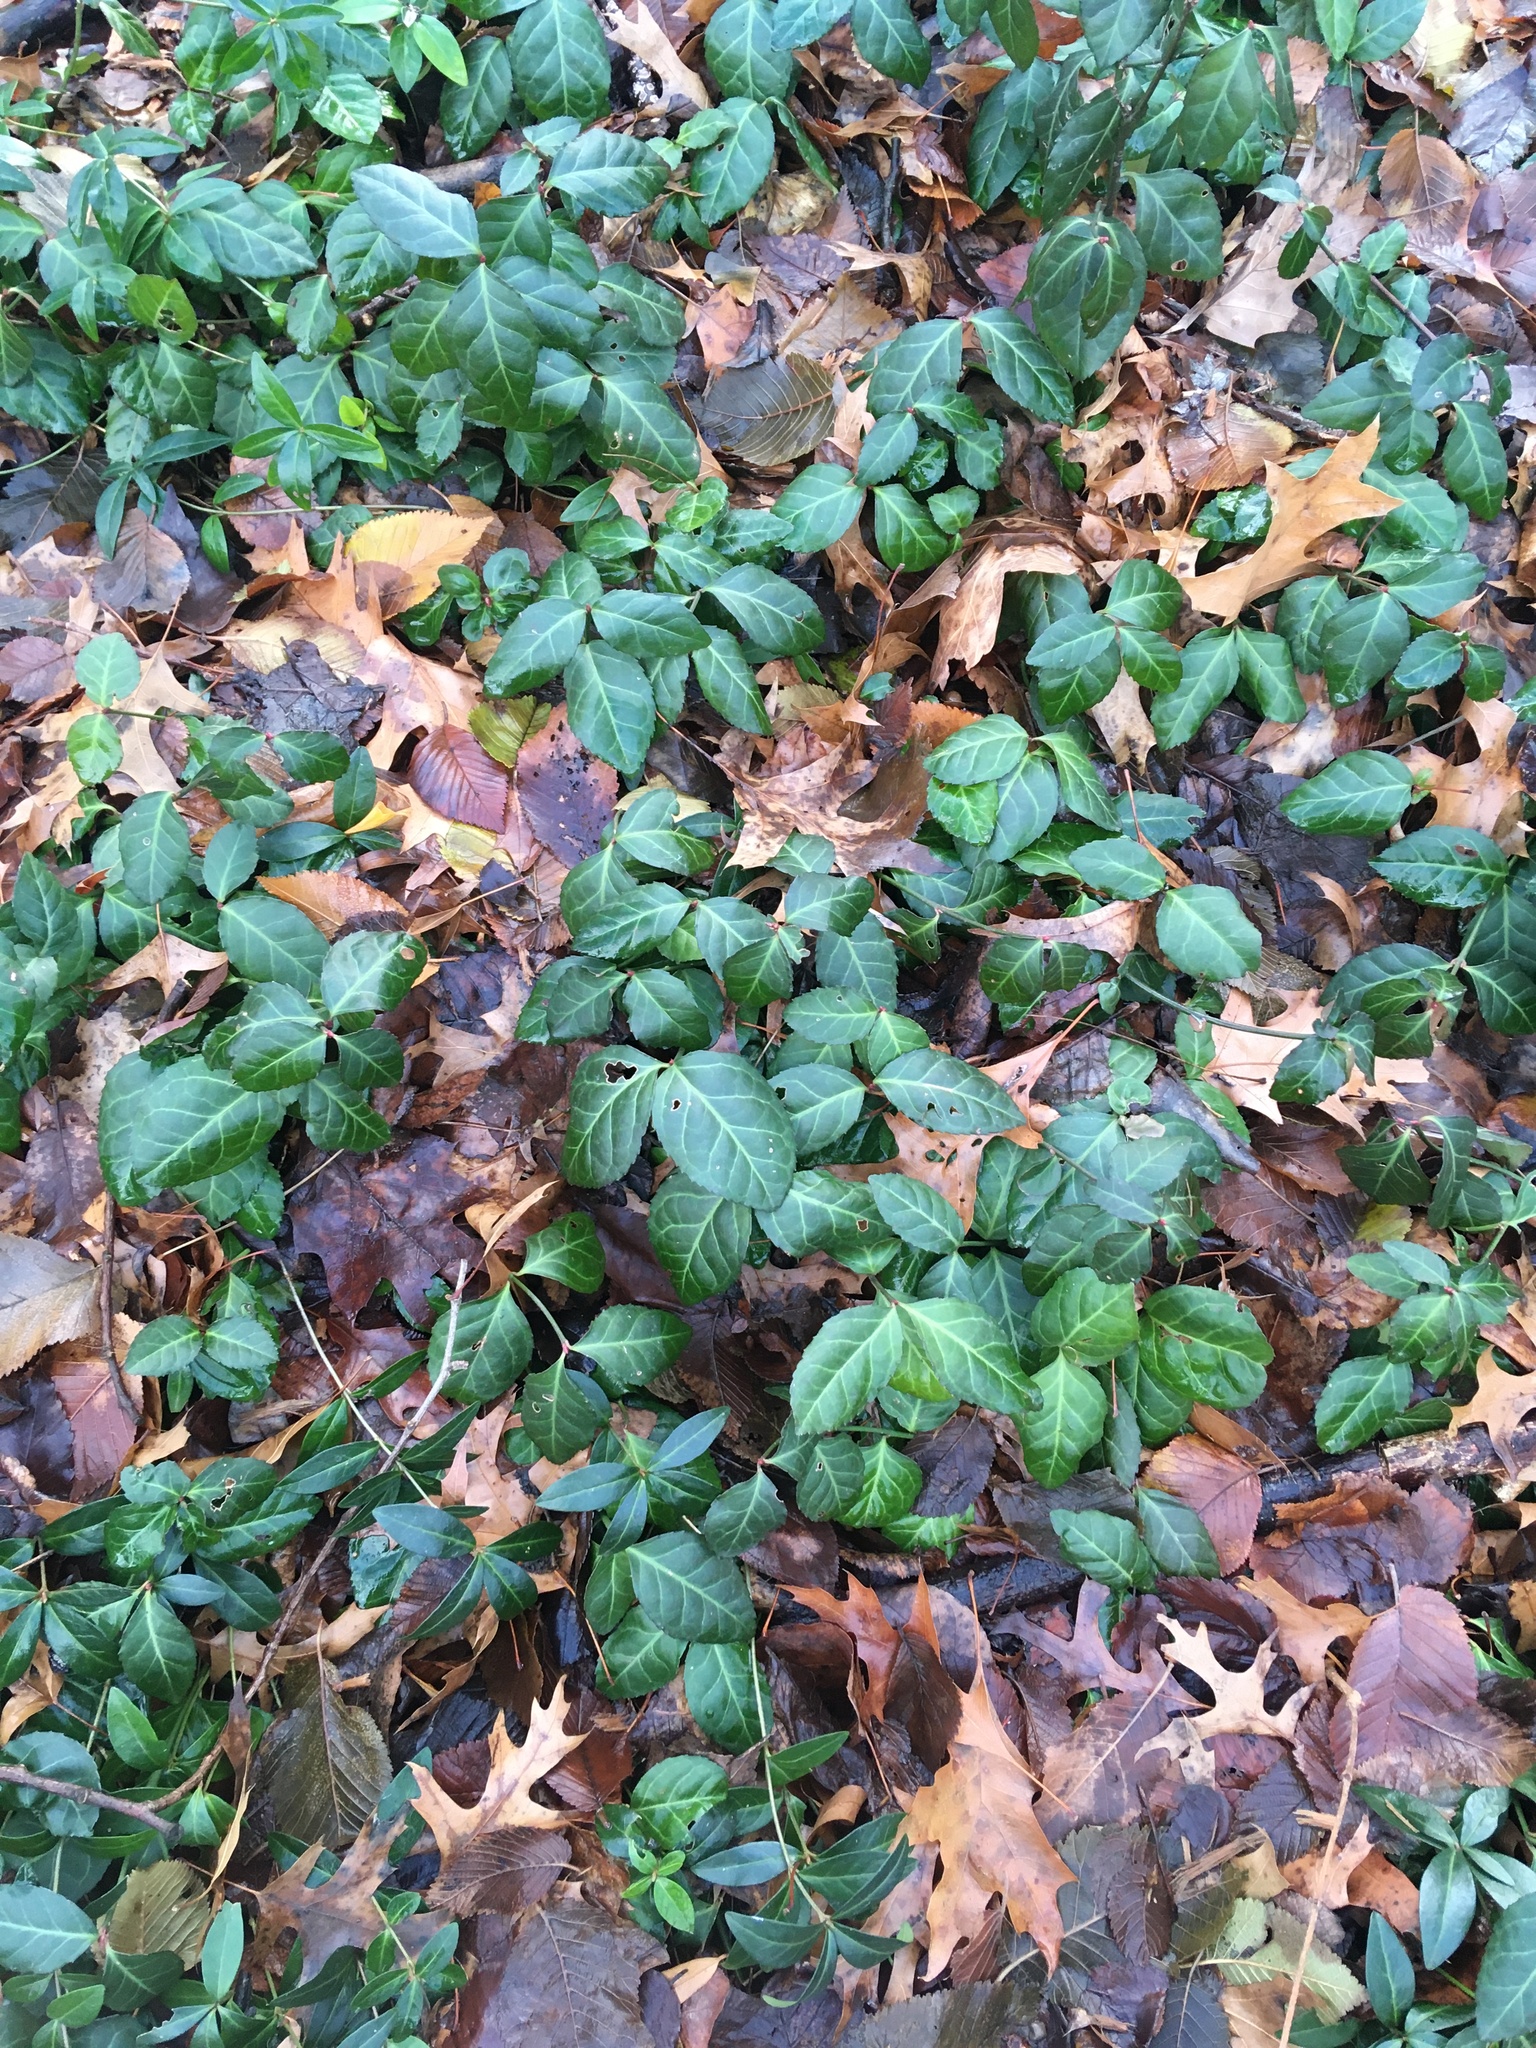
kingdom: Plantae
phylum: Tracheophyta
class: Magnoliopsida
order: Celastrales
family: Celastraceae
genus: Euonymus
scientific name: Euonymus fortunei
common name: Climbing euonymus
